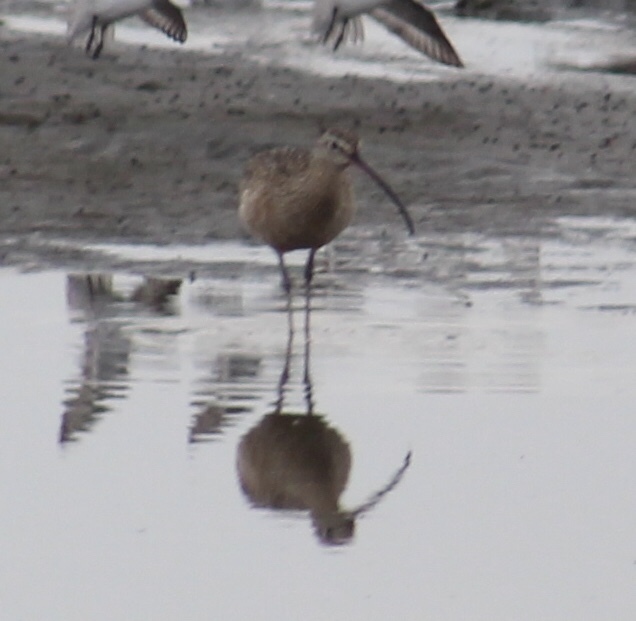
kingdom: Animalia
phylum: Chordata
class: Aves
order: Charadriiformes
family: Scolopacidae
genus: Numenius
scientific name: Numenius americanus
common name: Long-billed curlew
